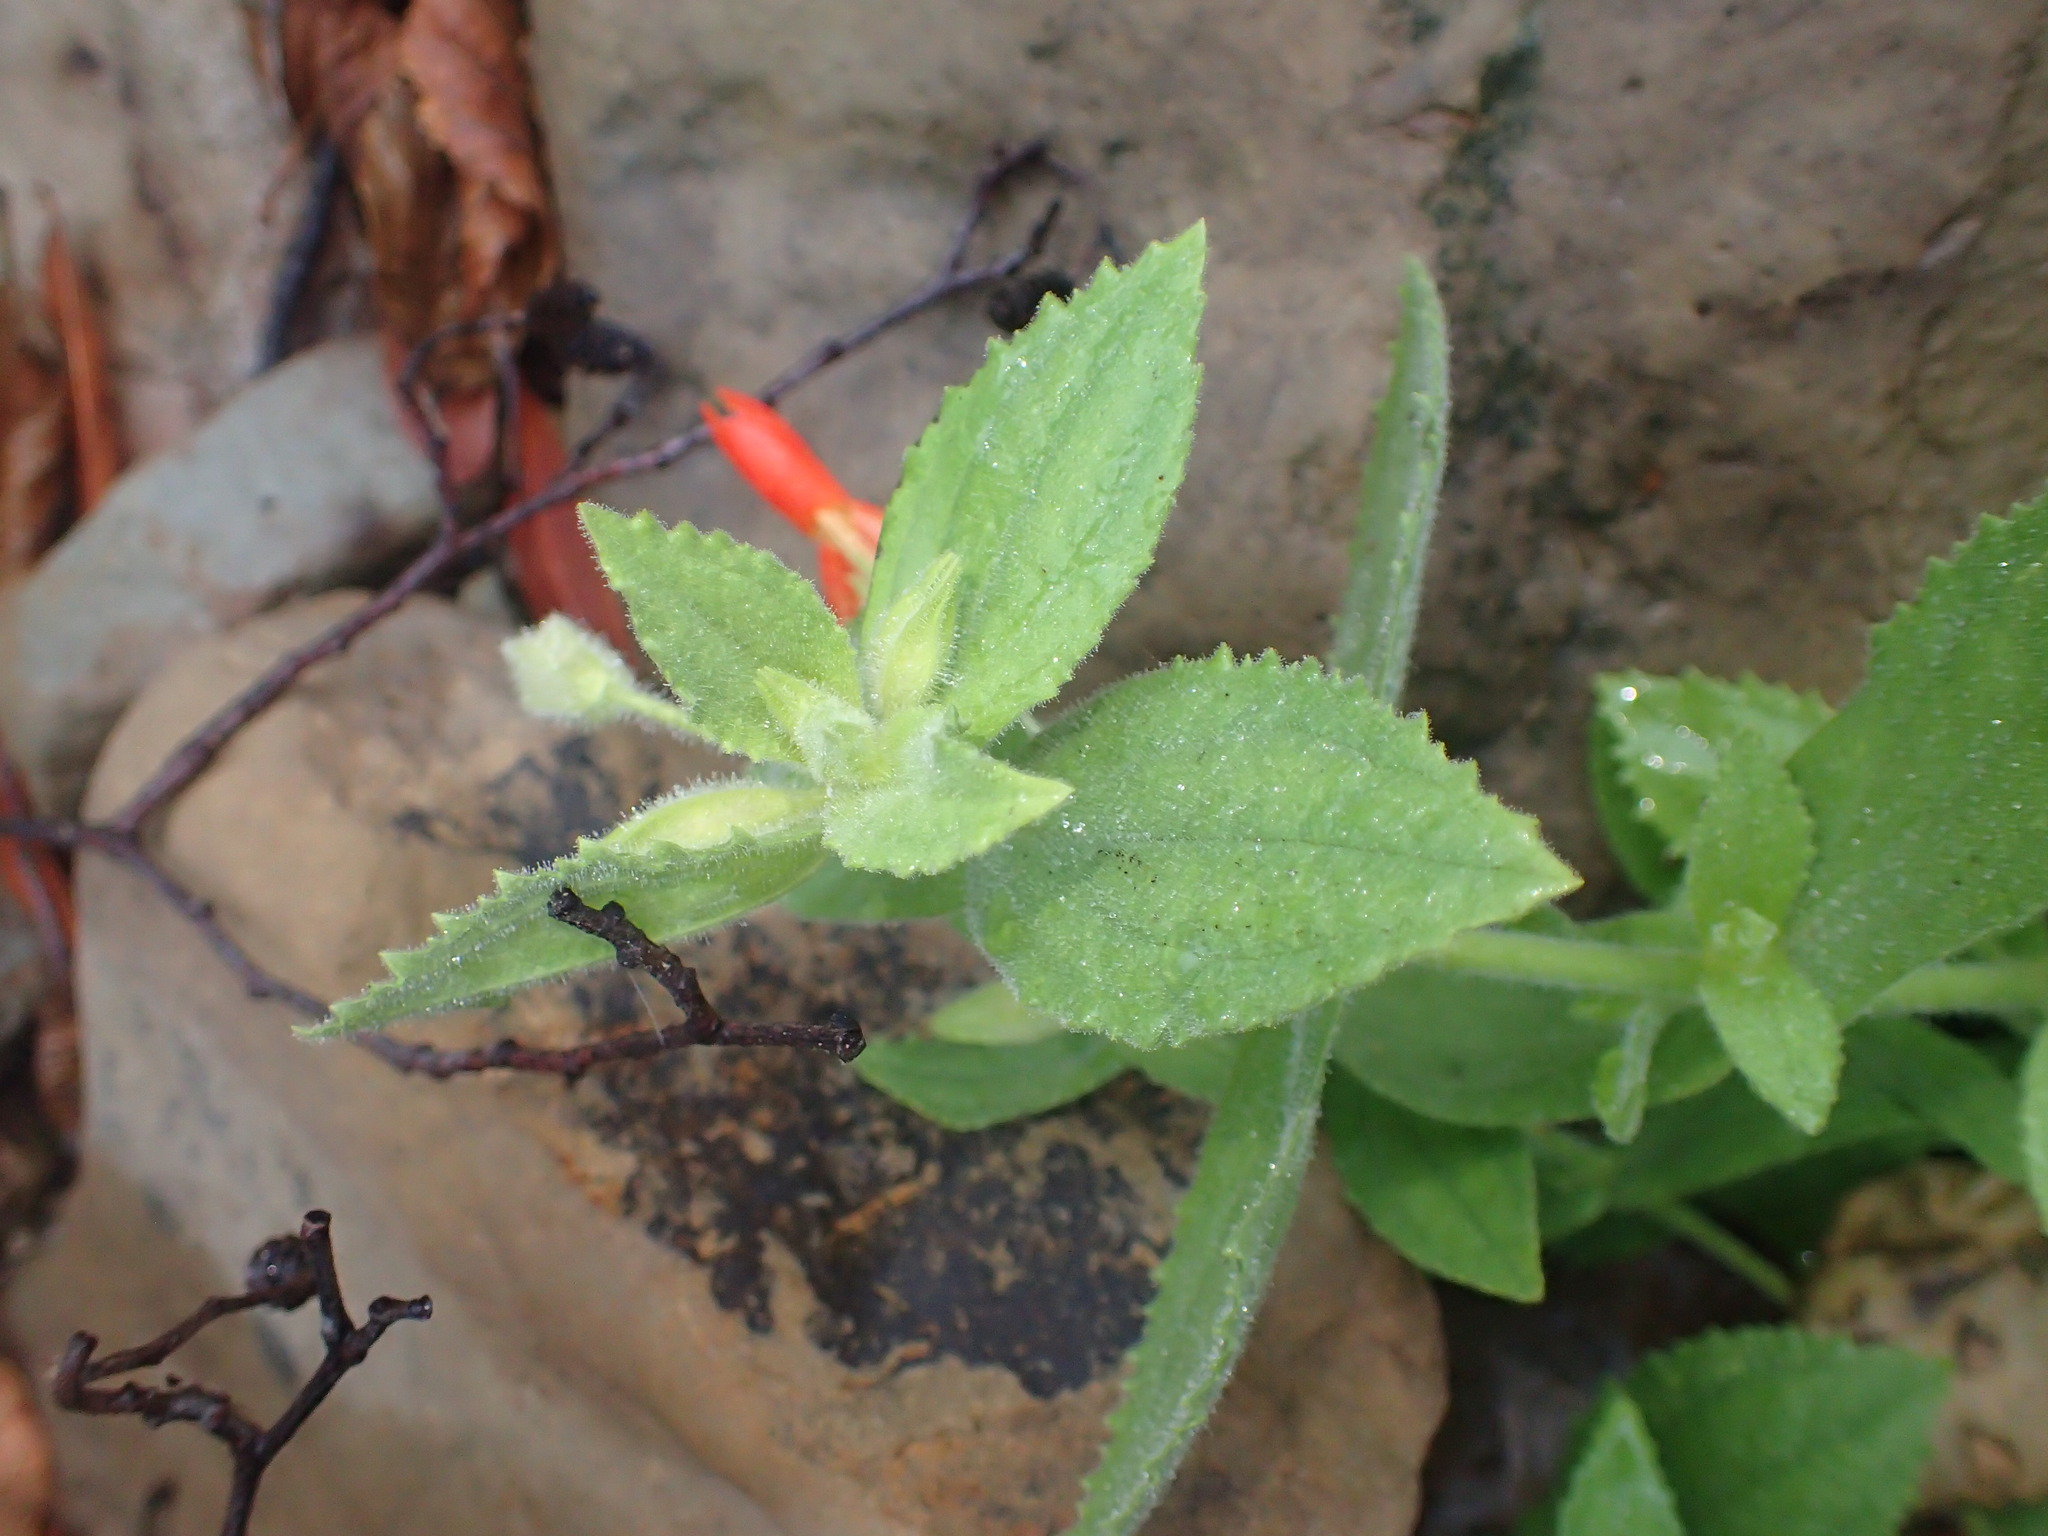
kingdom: Plantae
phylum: Tracheophyta
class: Magnoliopsida
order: Lamiales
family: Phrymaceae
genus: Erythranthe
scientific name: Erythranthe cardinalis
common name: Scarlet monkey-flower
